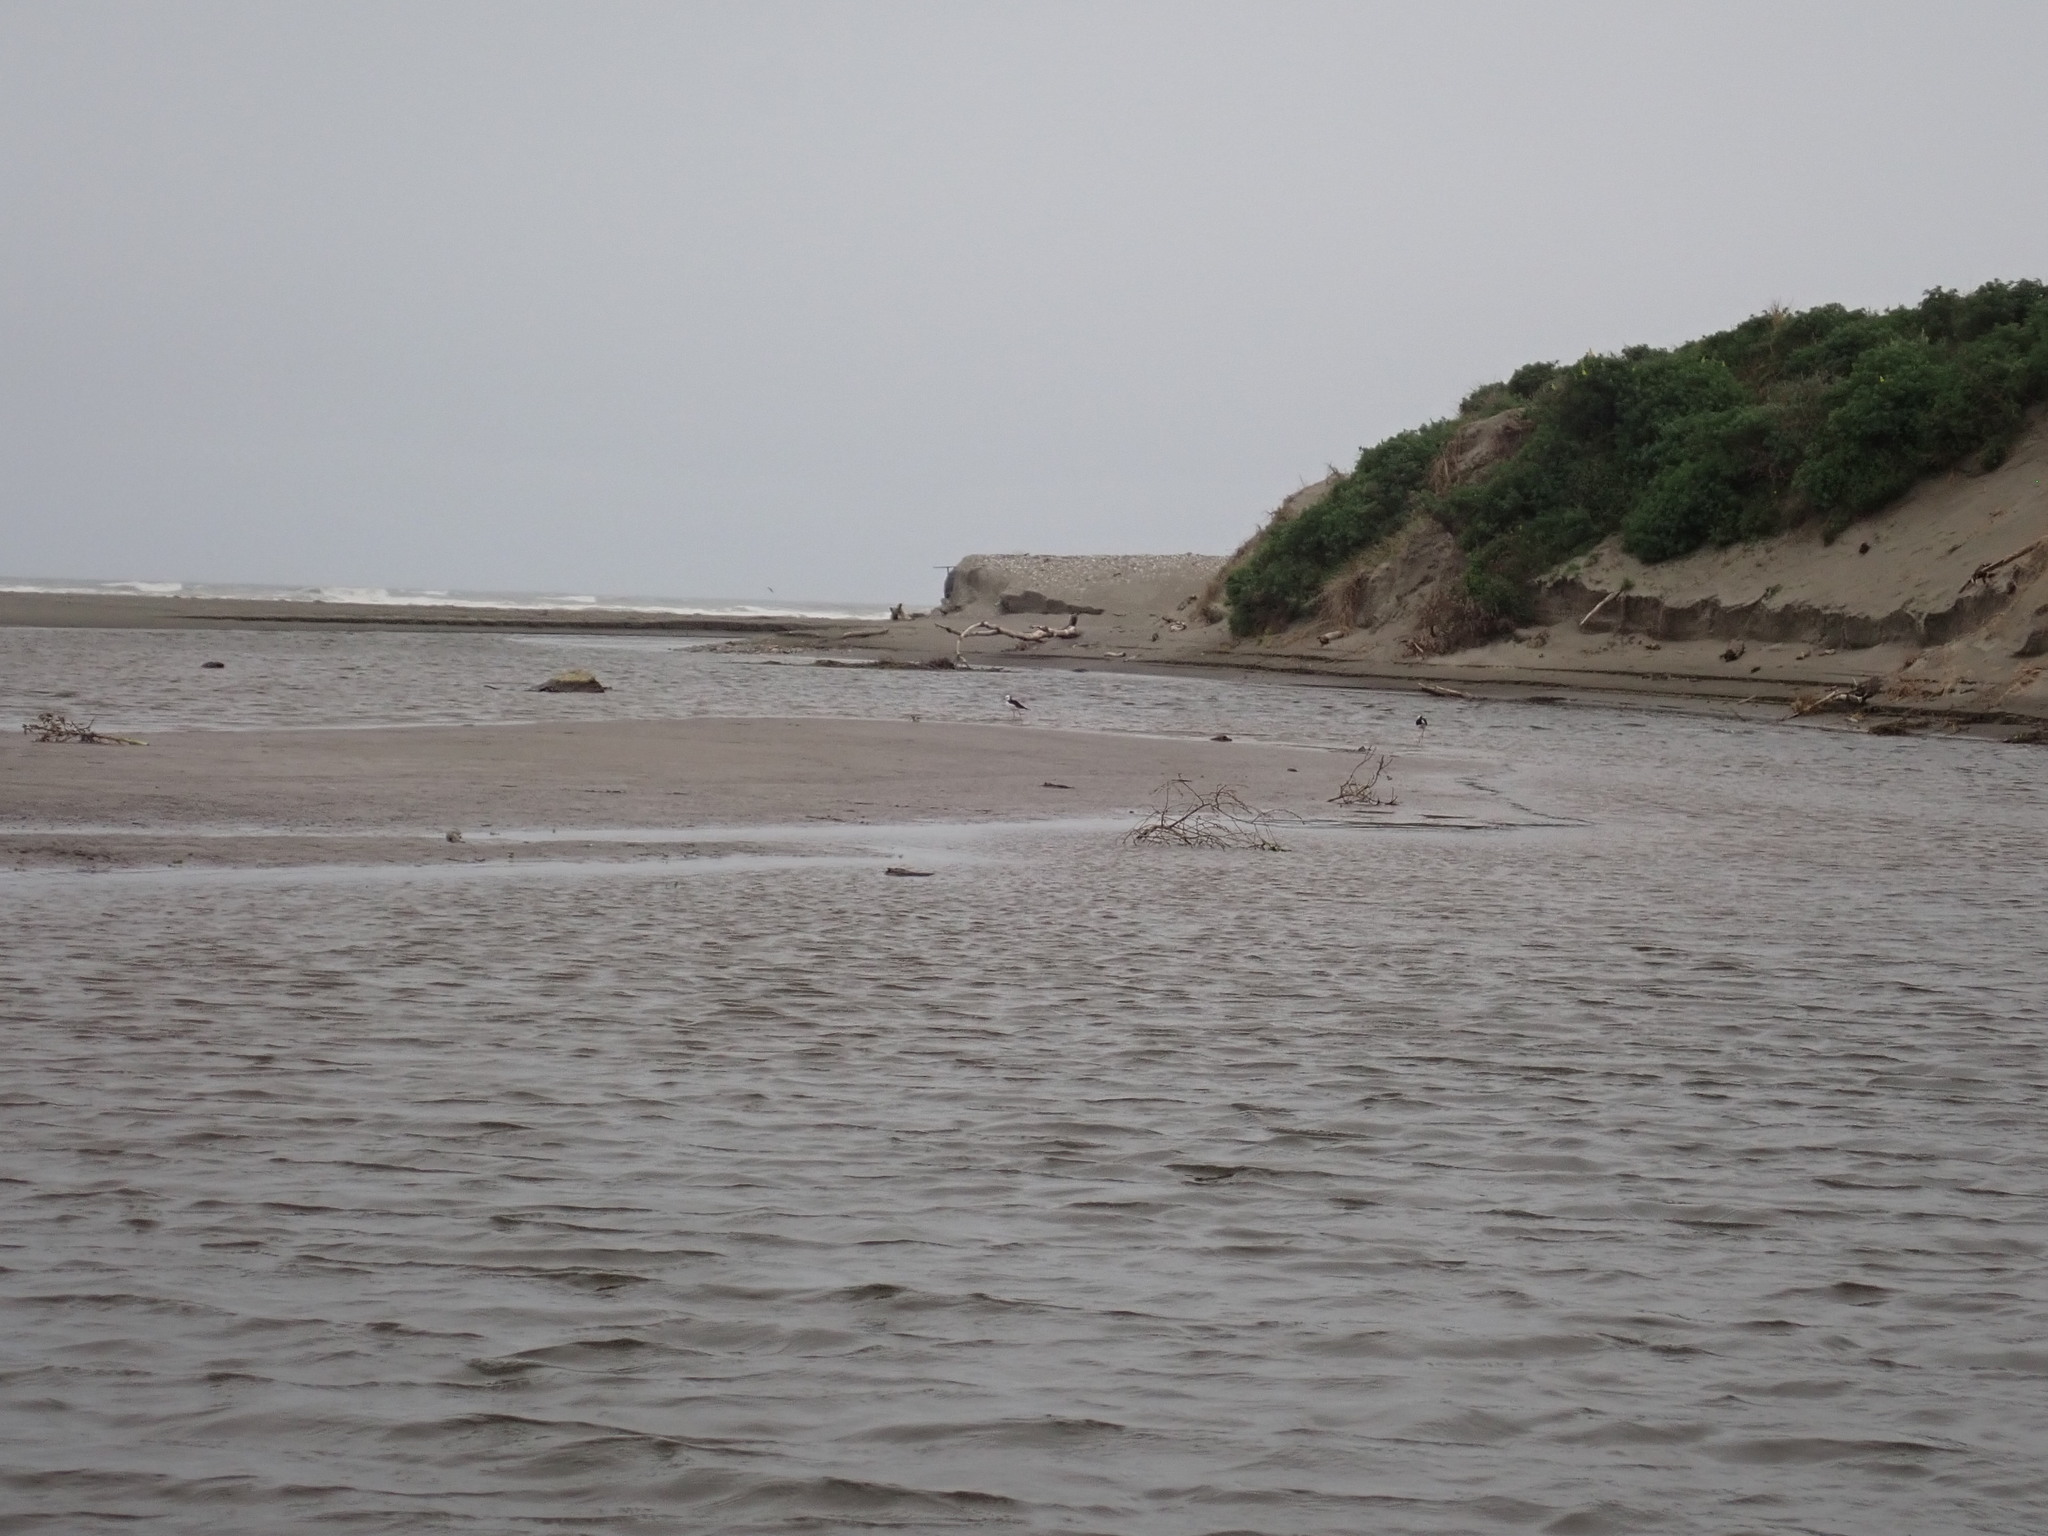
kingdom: Animalia
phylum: Chordata
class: Aves
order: Charadriiformes
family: Recurvirostridae
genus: Himantopus
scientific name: Himantopus leucocephalus
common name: White-headed stilt
